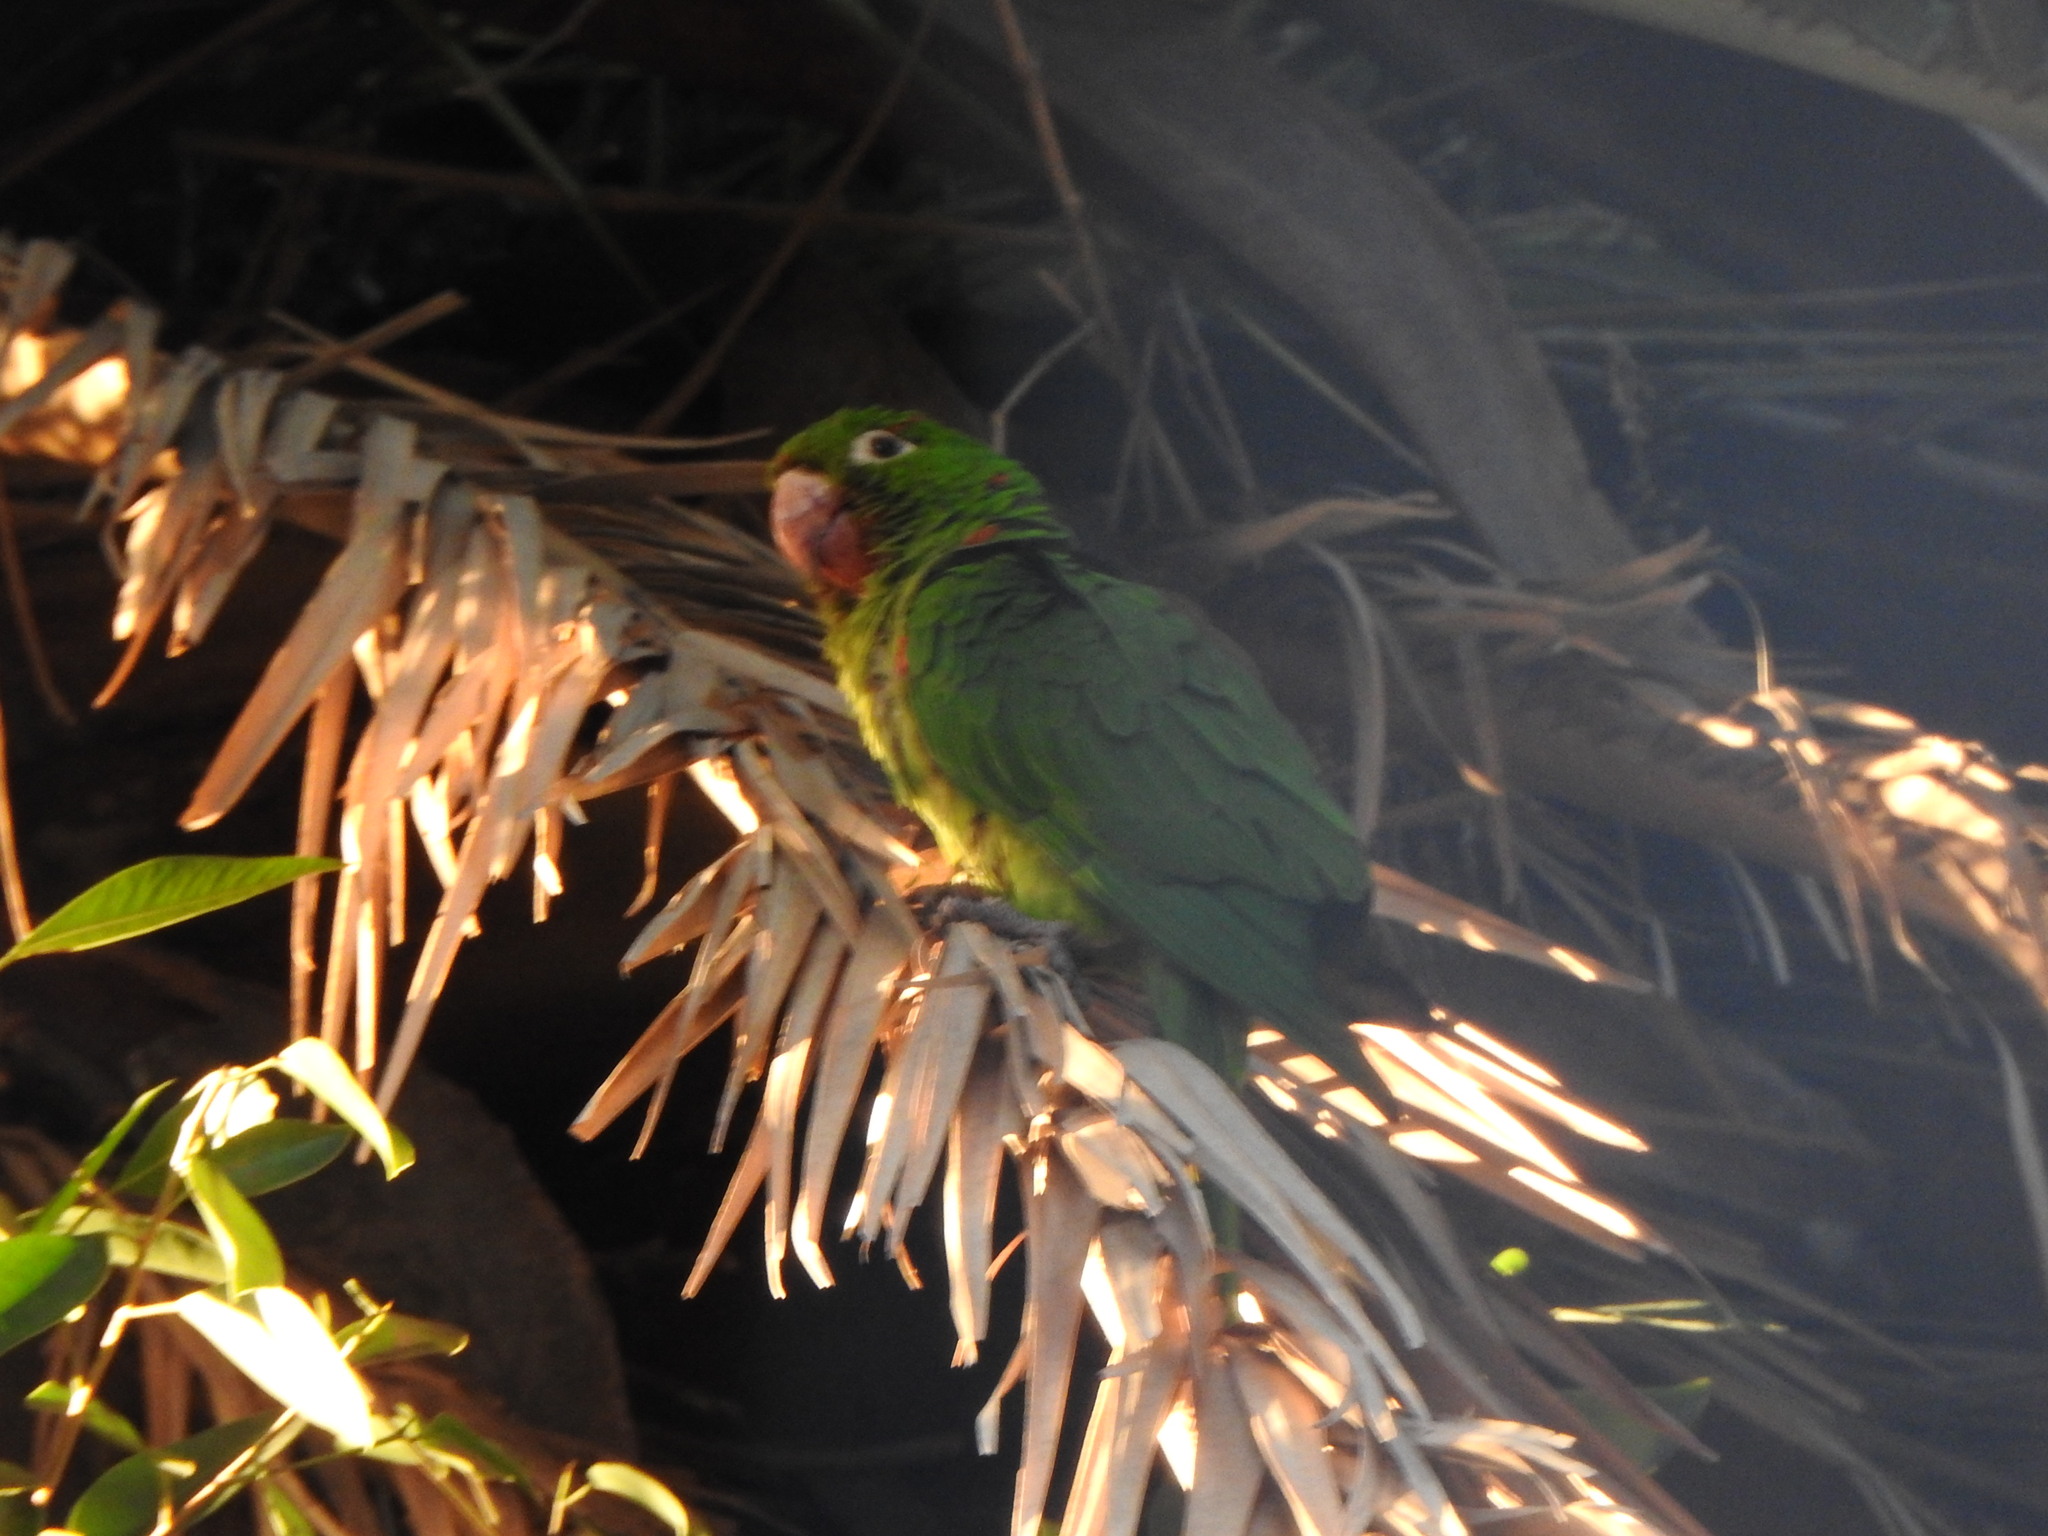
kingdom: Animalia
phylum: Chordata
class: Aves
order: Psittaciformes
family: Psittacidae
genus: Aratinga
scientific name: Aratinga leucophthalma
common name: White-eyed parakeet
